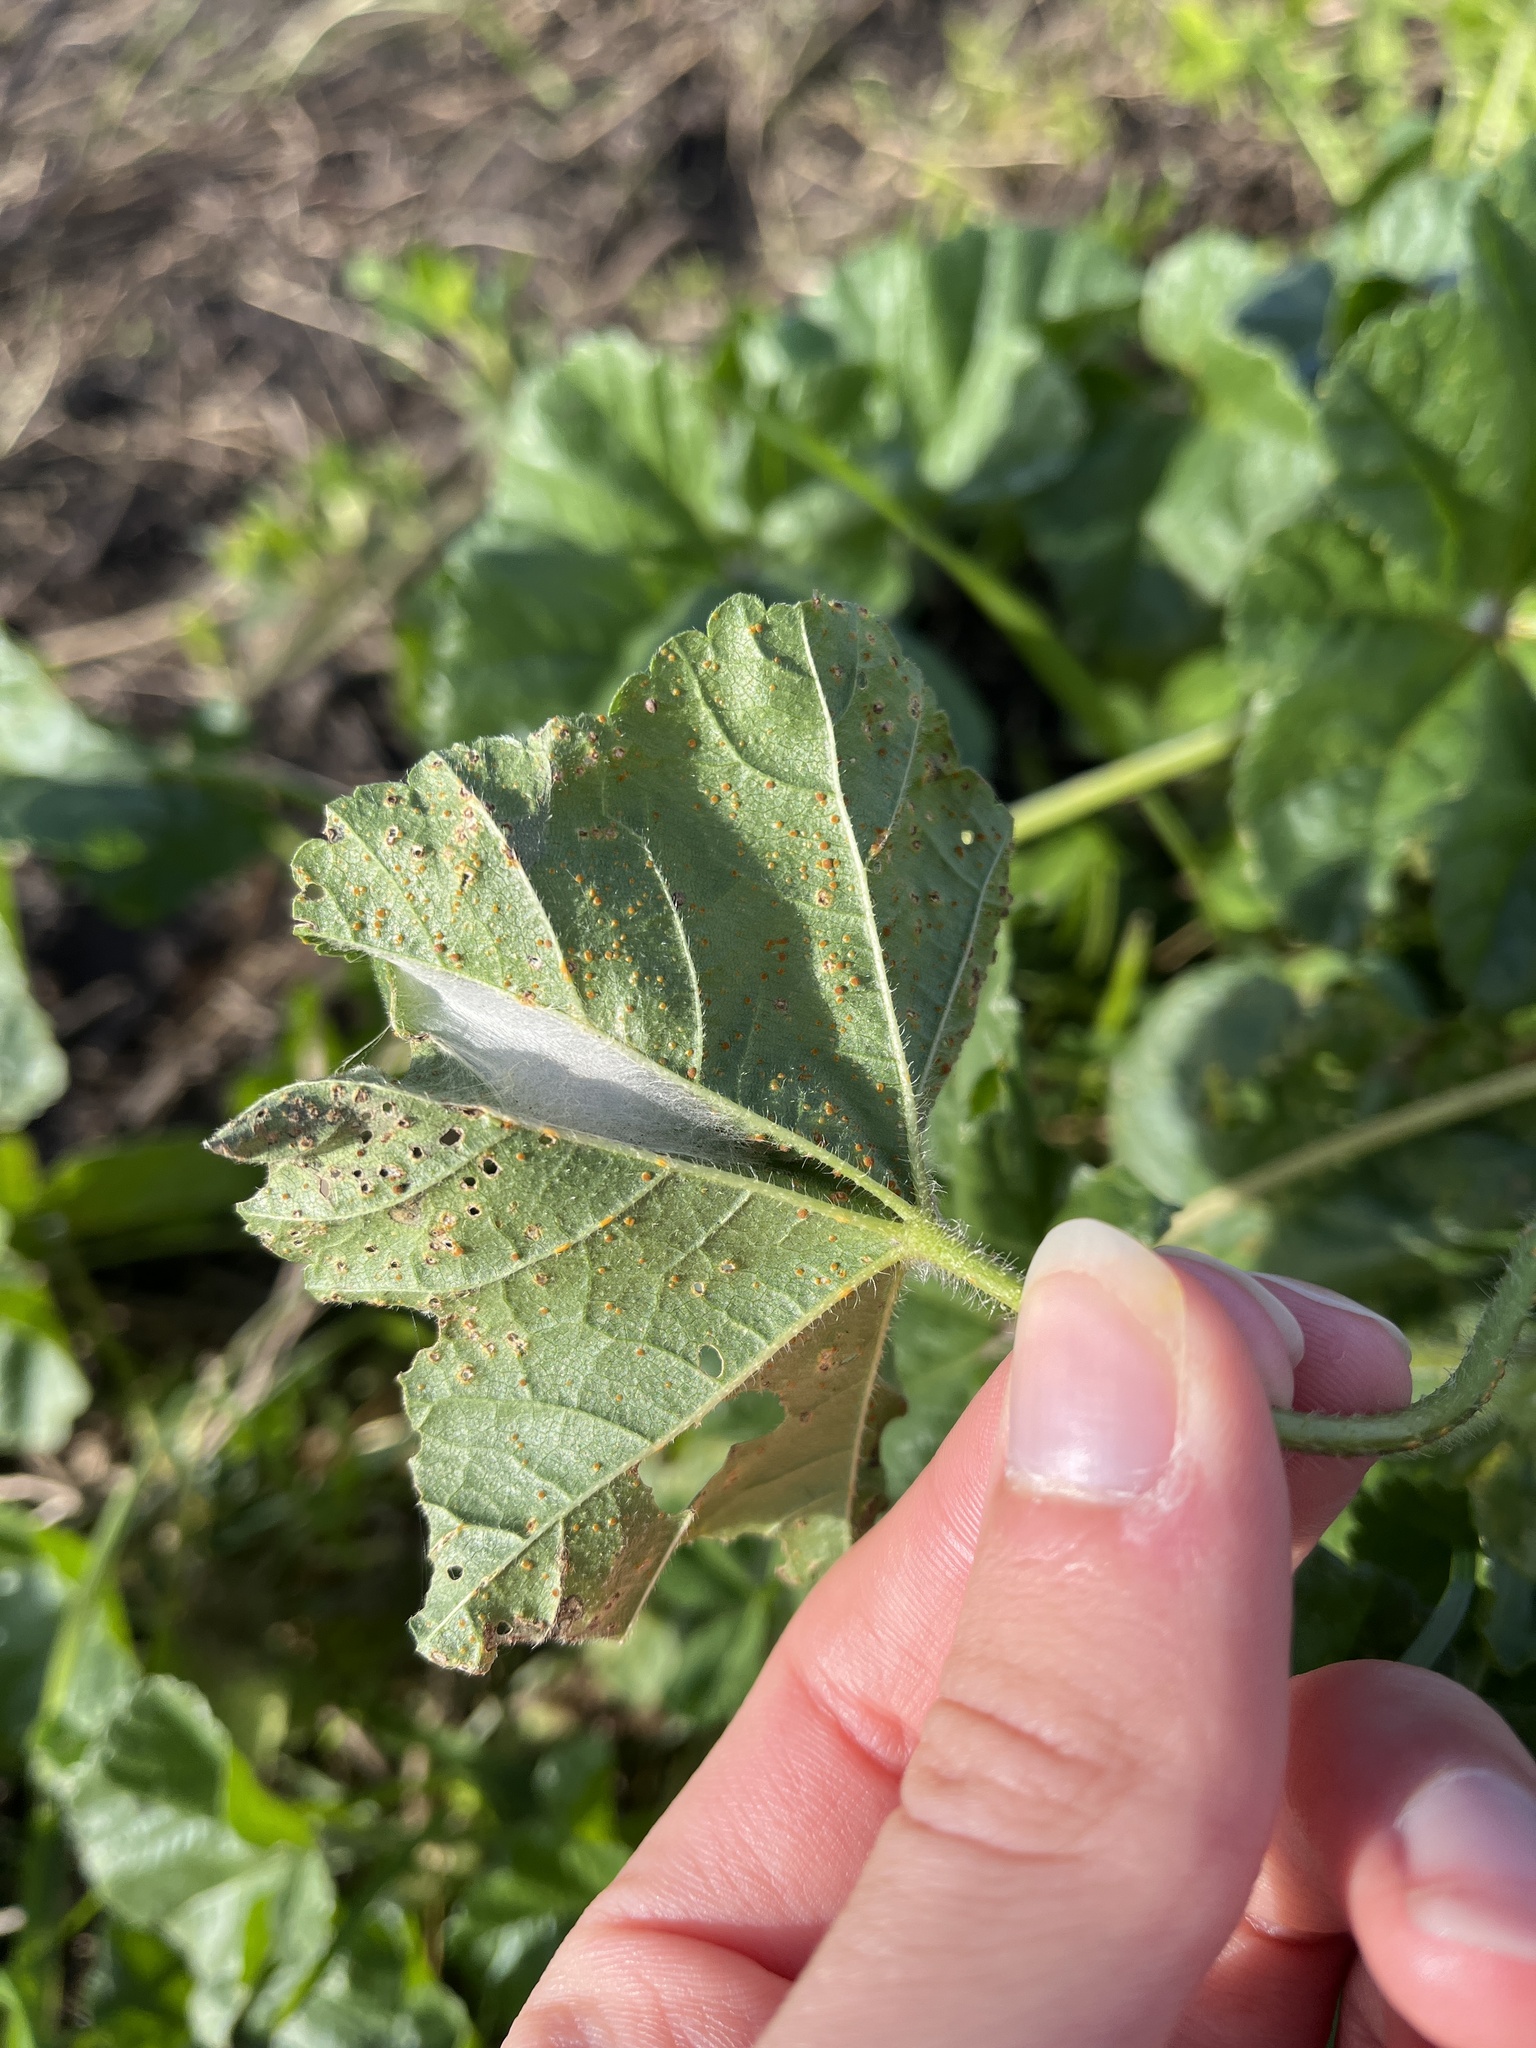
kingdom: Fungi
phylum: Basidiomycota
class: Pucciniomycetes
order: Pucciniales
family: Pucciniaceae
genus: Puccinia
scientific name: Puccinia malvacearum
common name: Hollyhock rust
